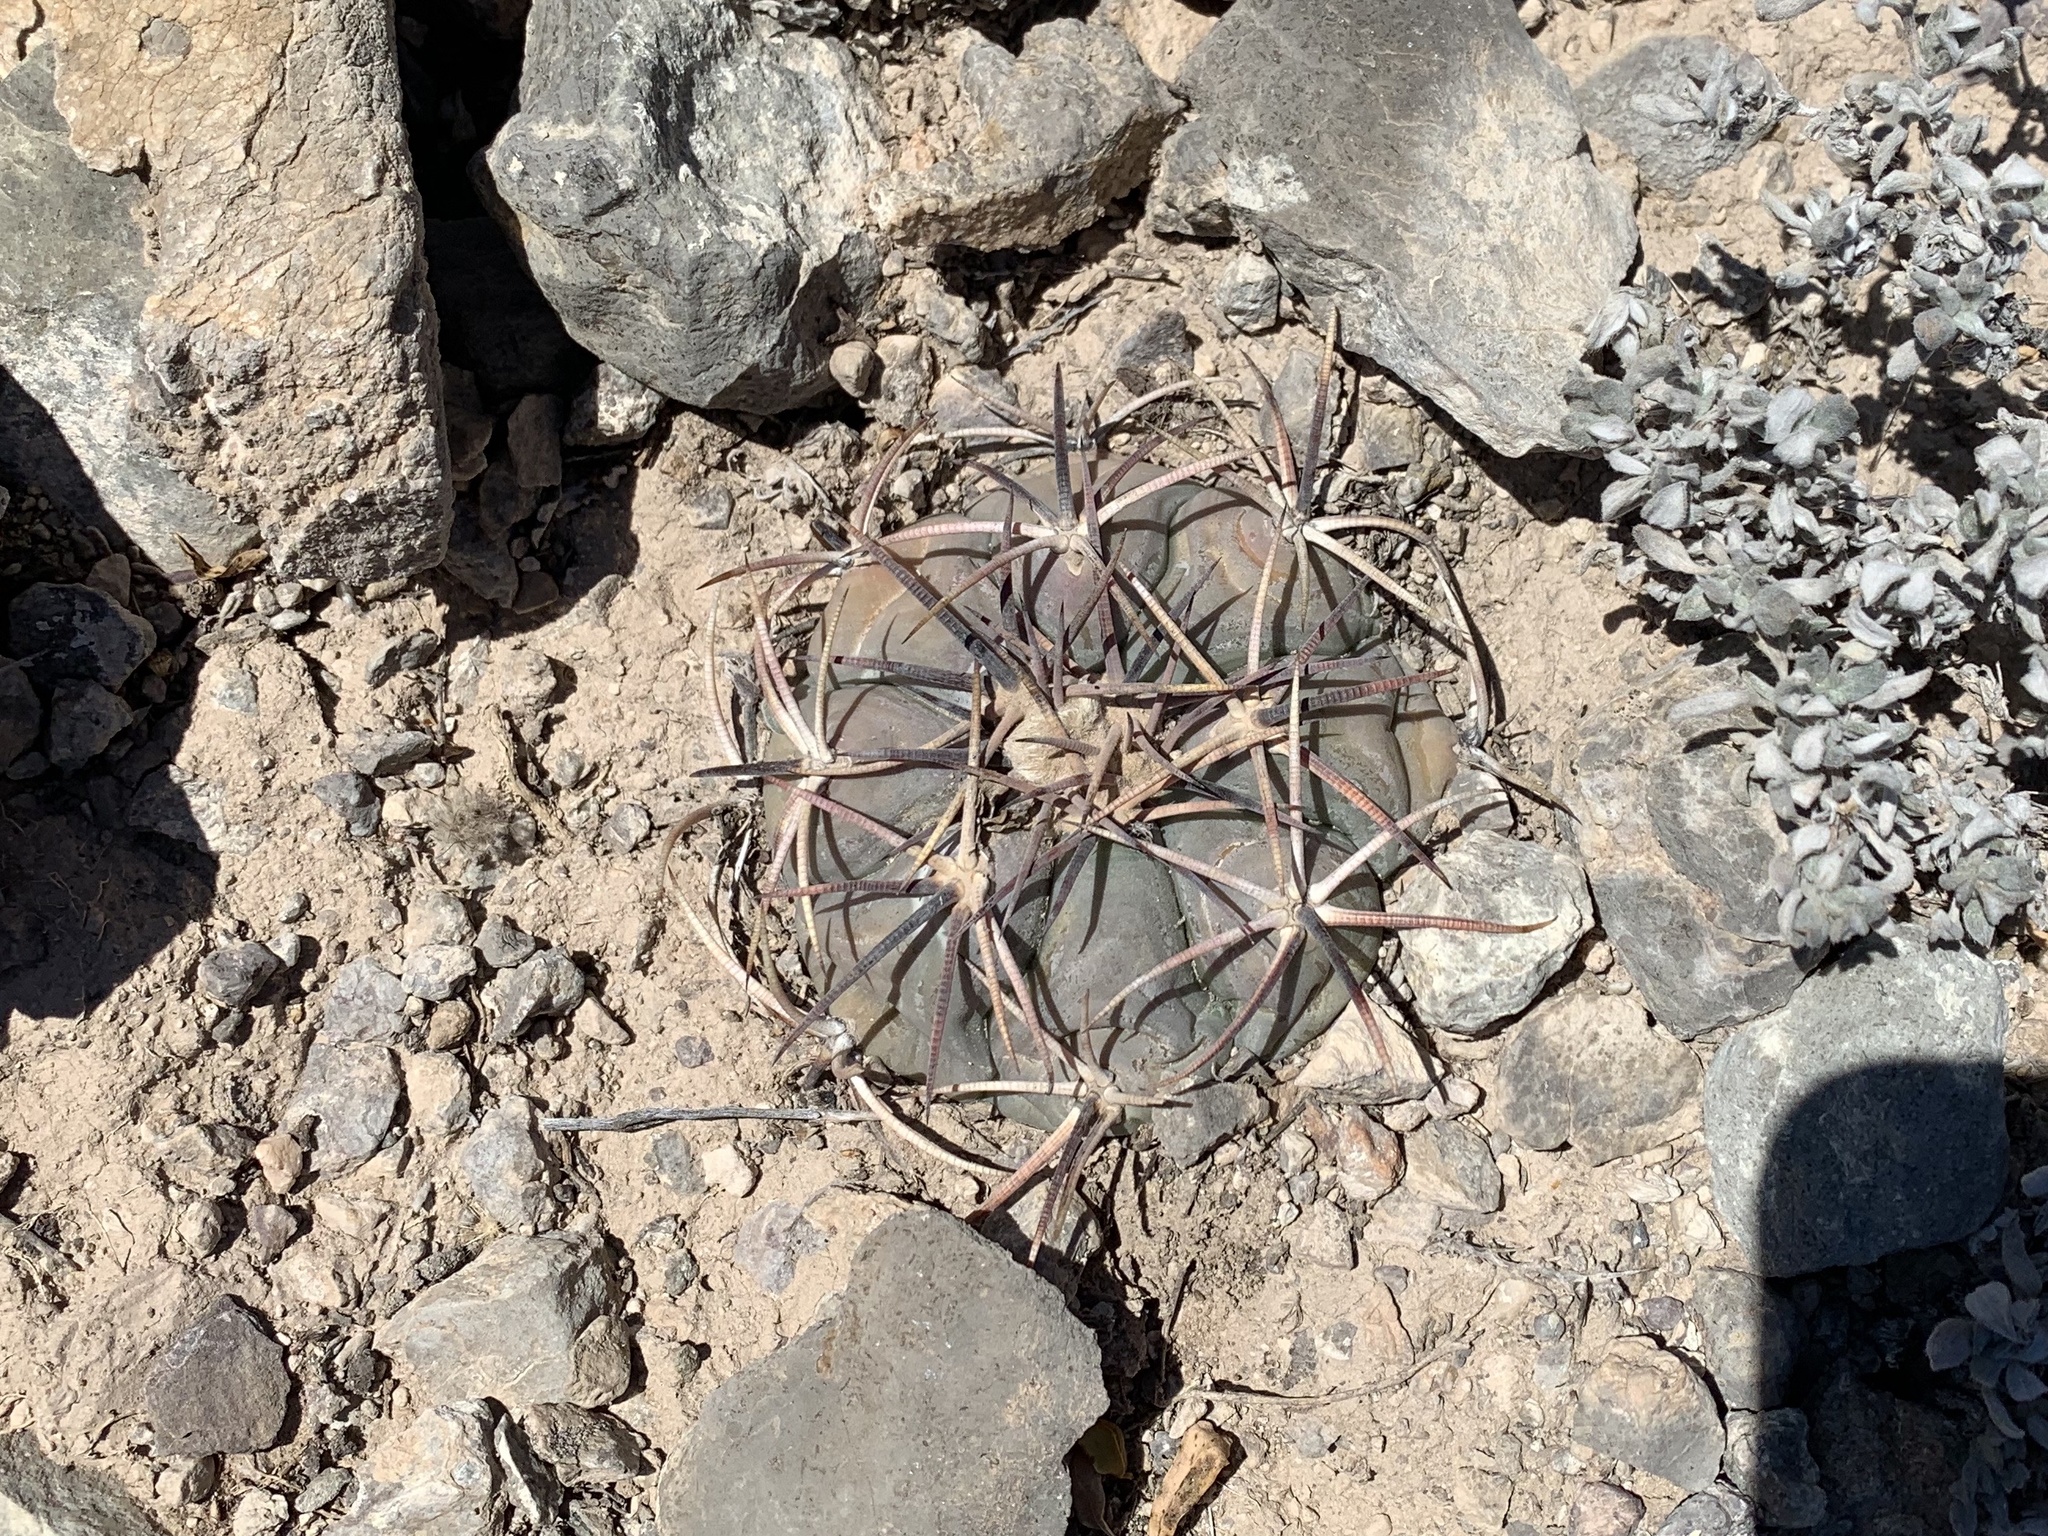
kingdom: Plantae
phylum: Tracheophyta
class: Magnoliopsida
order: Caryophyllales
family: Cactaceae
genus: Echinocactus
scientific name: Echinocactus horizonthalonius
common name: Devilshead
